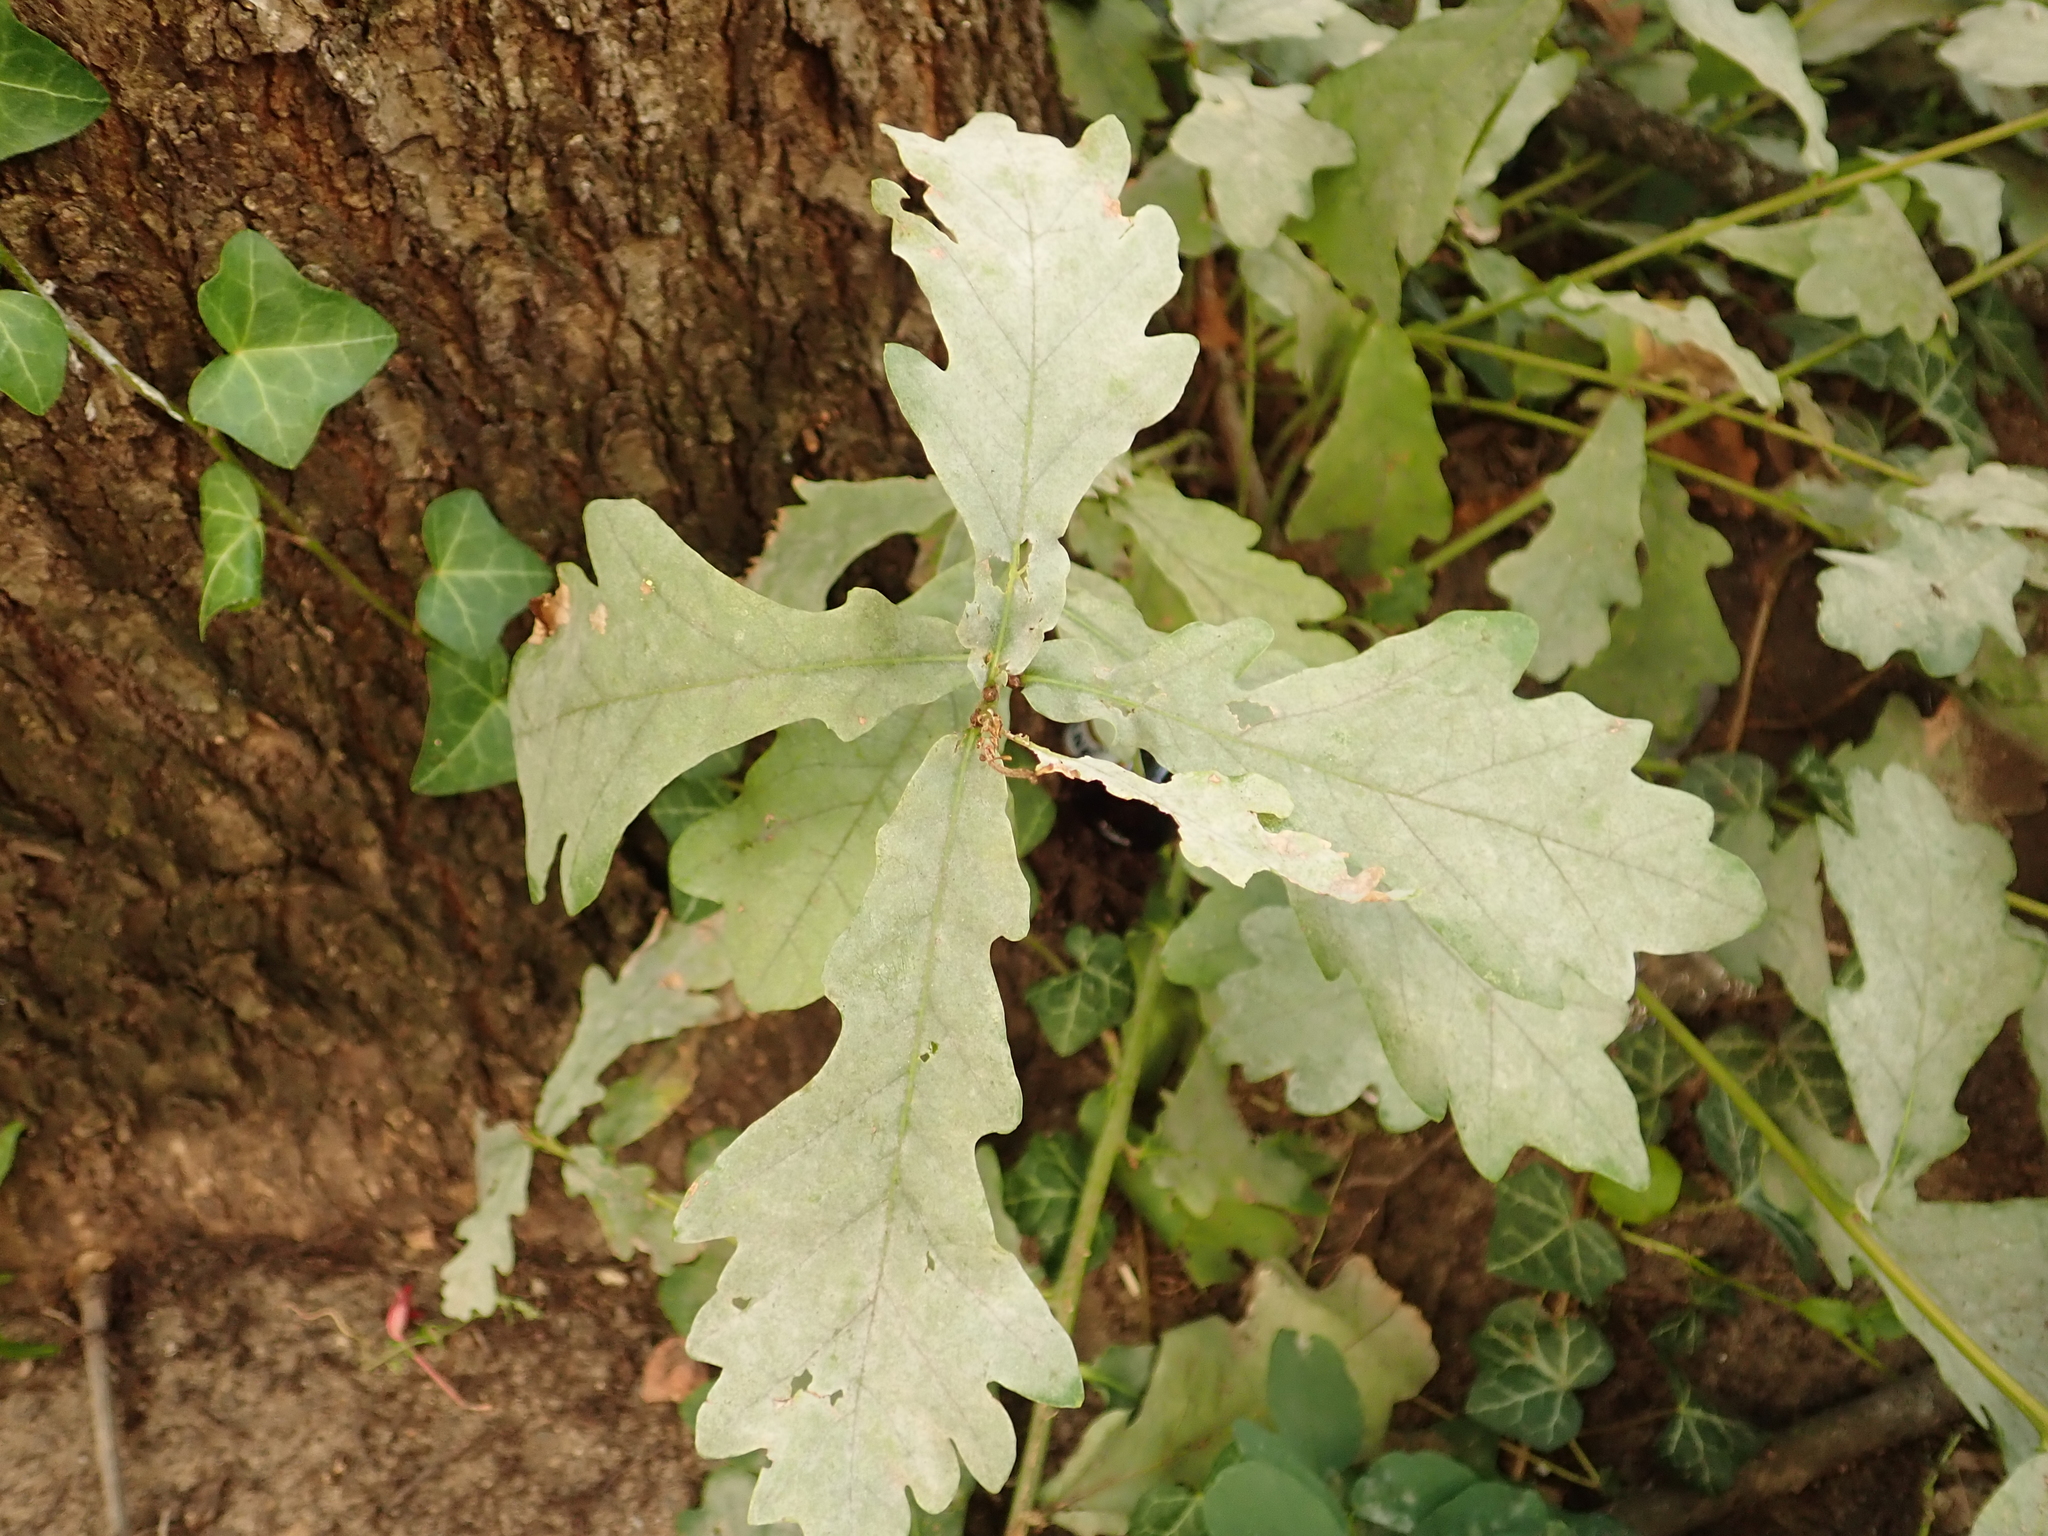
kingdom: Plantae
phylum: Tracheophyta
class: Magnoliopsida
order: Fagales
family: Fagaceae
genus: Quercus
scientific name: Quercus robur
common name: Pedunculate oak
